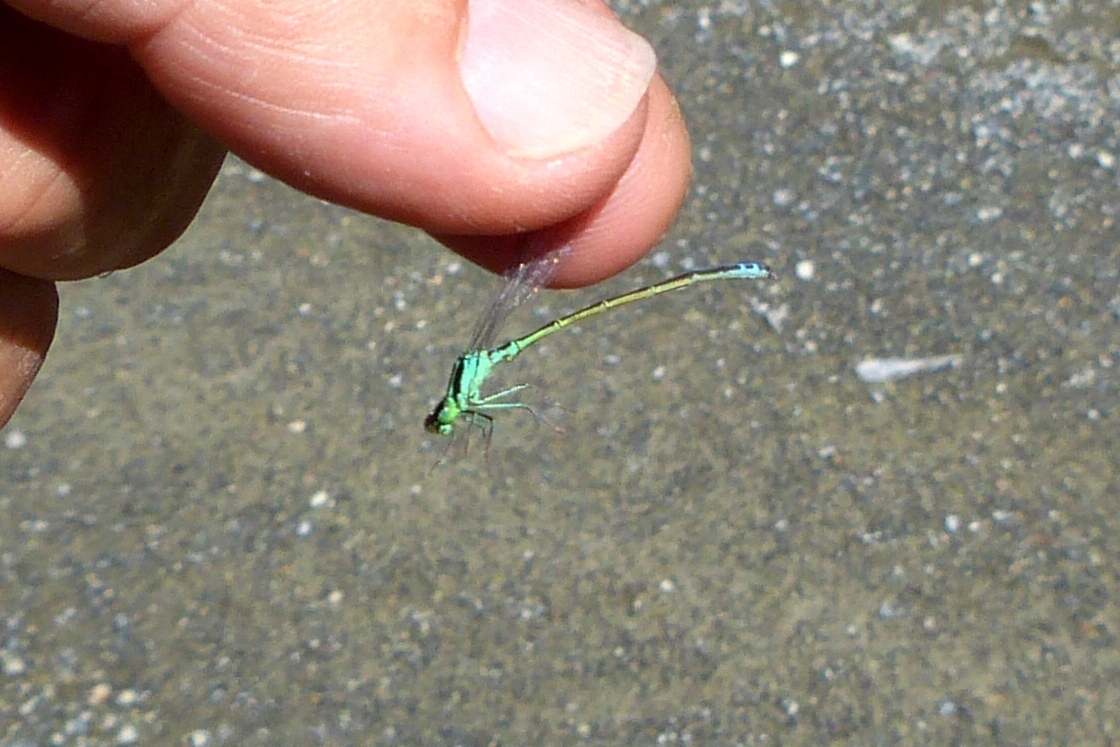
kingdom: Animalia
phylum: Arthropoda
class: Insecta
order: Odonata
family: Coenagrionidae
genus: Ischnura
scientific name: Ischnura verticalis
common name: Eastern forktail
